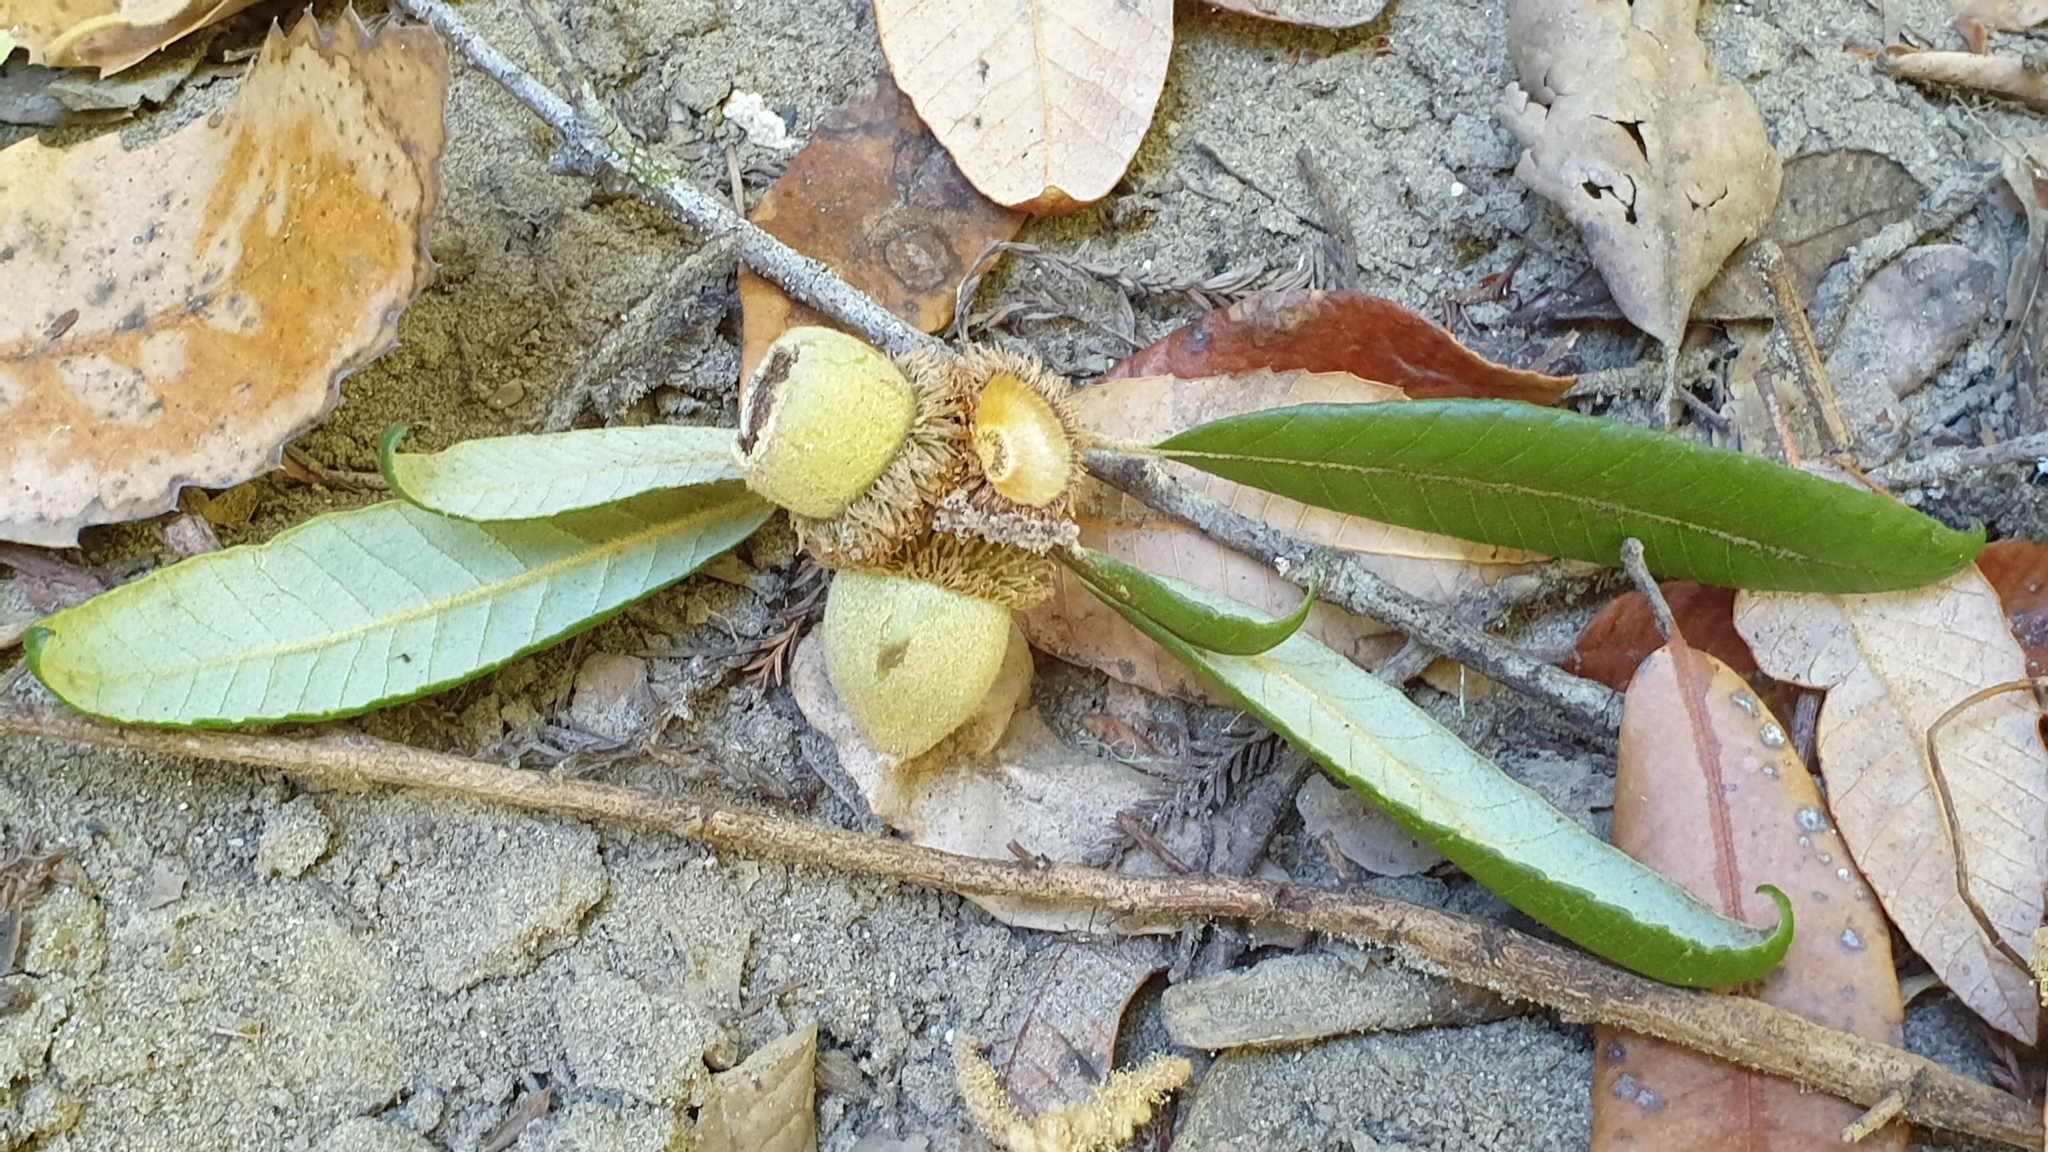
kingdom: Plantae
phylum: Tracheophyta
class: Magnoliopsida
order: Fagales
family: Fagaceae
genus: Notholithocarpus
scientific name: Notholithocarpus densiflorus
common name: Tan bark oak
